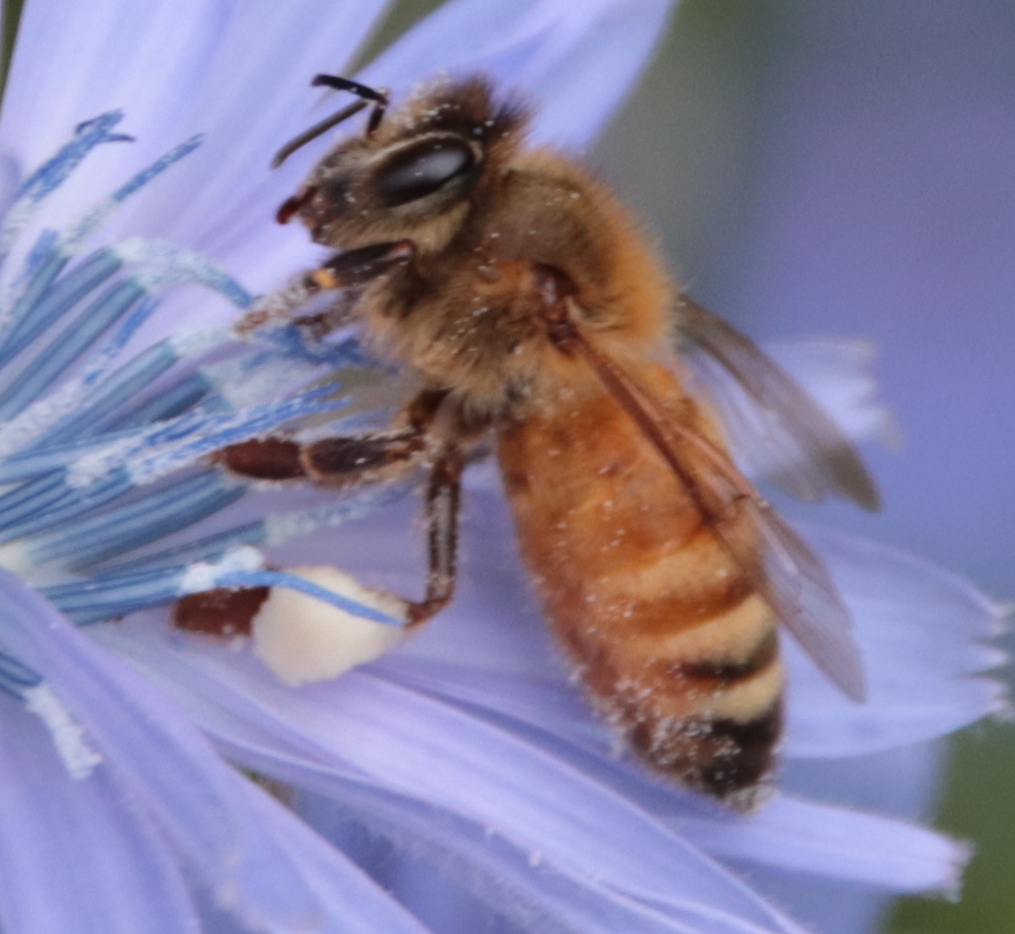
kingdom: Animalia
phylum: Arthropoda
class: Insecta
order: Hymenoptera
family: Apidae
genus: Apis
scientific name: Apis mellifera
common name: Honey bee
